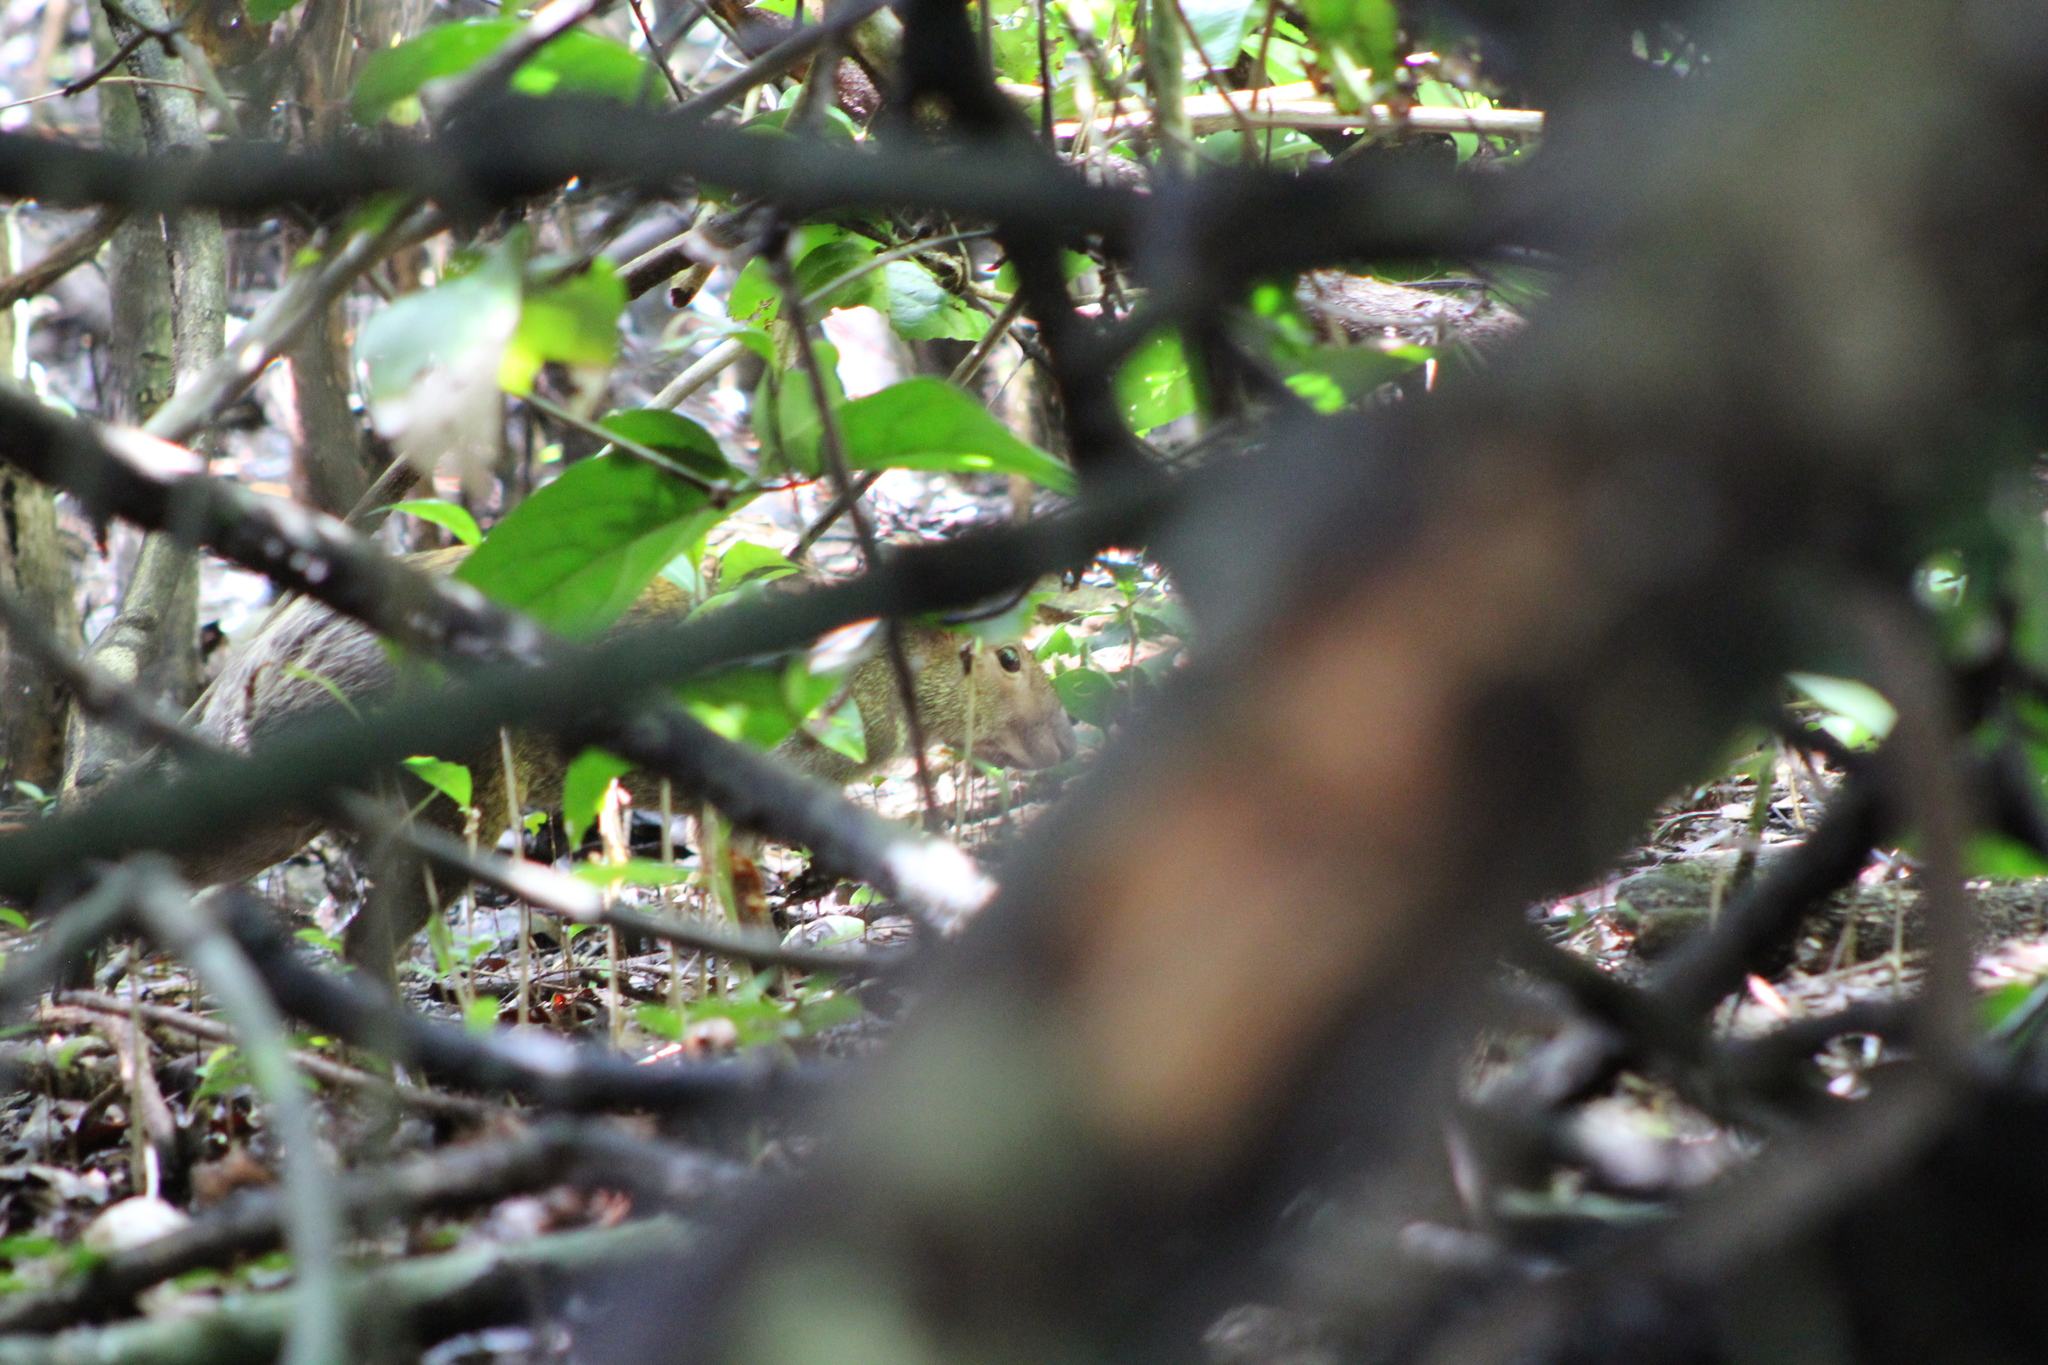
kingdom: Animalia
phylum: Chordata
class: Mammalia
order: Rodentia
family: Dasyproctidae
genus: Dasyprocta
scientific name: Dasyprocta punctata
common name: Central american agouti
